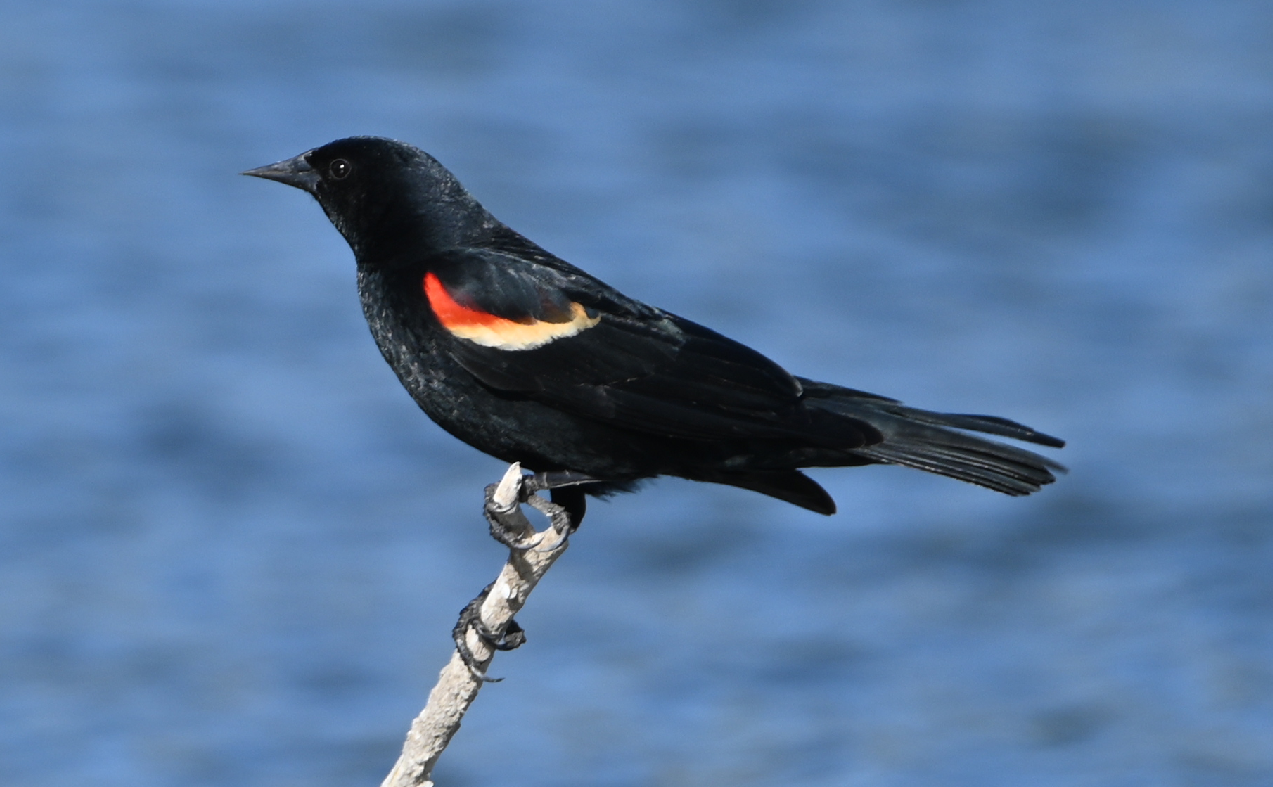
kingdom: Animalia
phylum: Chordata
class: Aves
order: Passeriformes
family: Icteridae
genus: Agelaius
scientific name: Agelaius phoeniceus
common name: Red-winged blackbird
